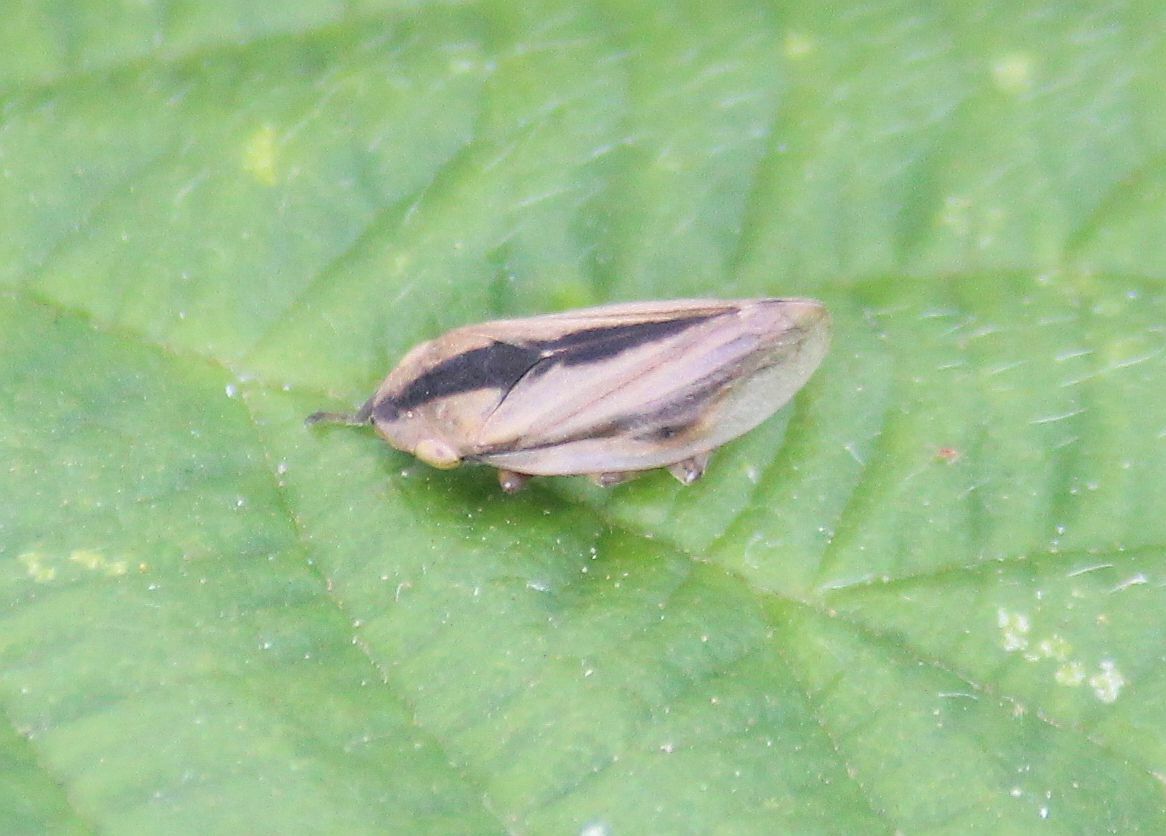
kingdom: Animalia
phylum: Arthropoda
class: Insecta
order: Hemiptera
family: Aphrophoridae
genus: Philaenus
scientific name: Philaenus spumarius
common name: Meadow spittlebug
